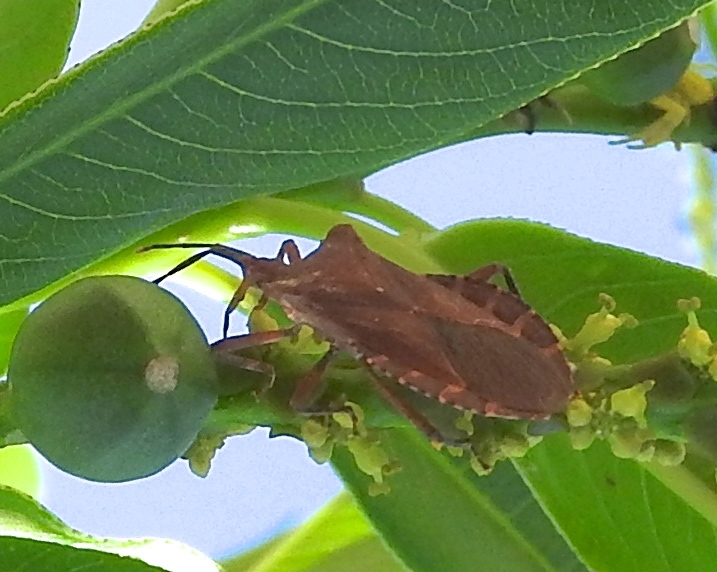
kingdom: Animalia
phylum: Arthropoda
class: Insecta
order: Hemiptera
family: Coreidae
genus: Sethenira
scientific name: Sethenira ferruginea
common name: Leaf-footed bug
